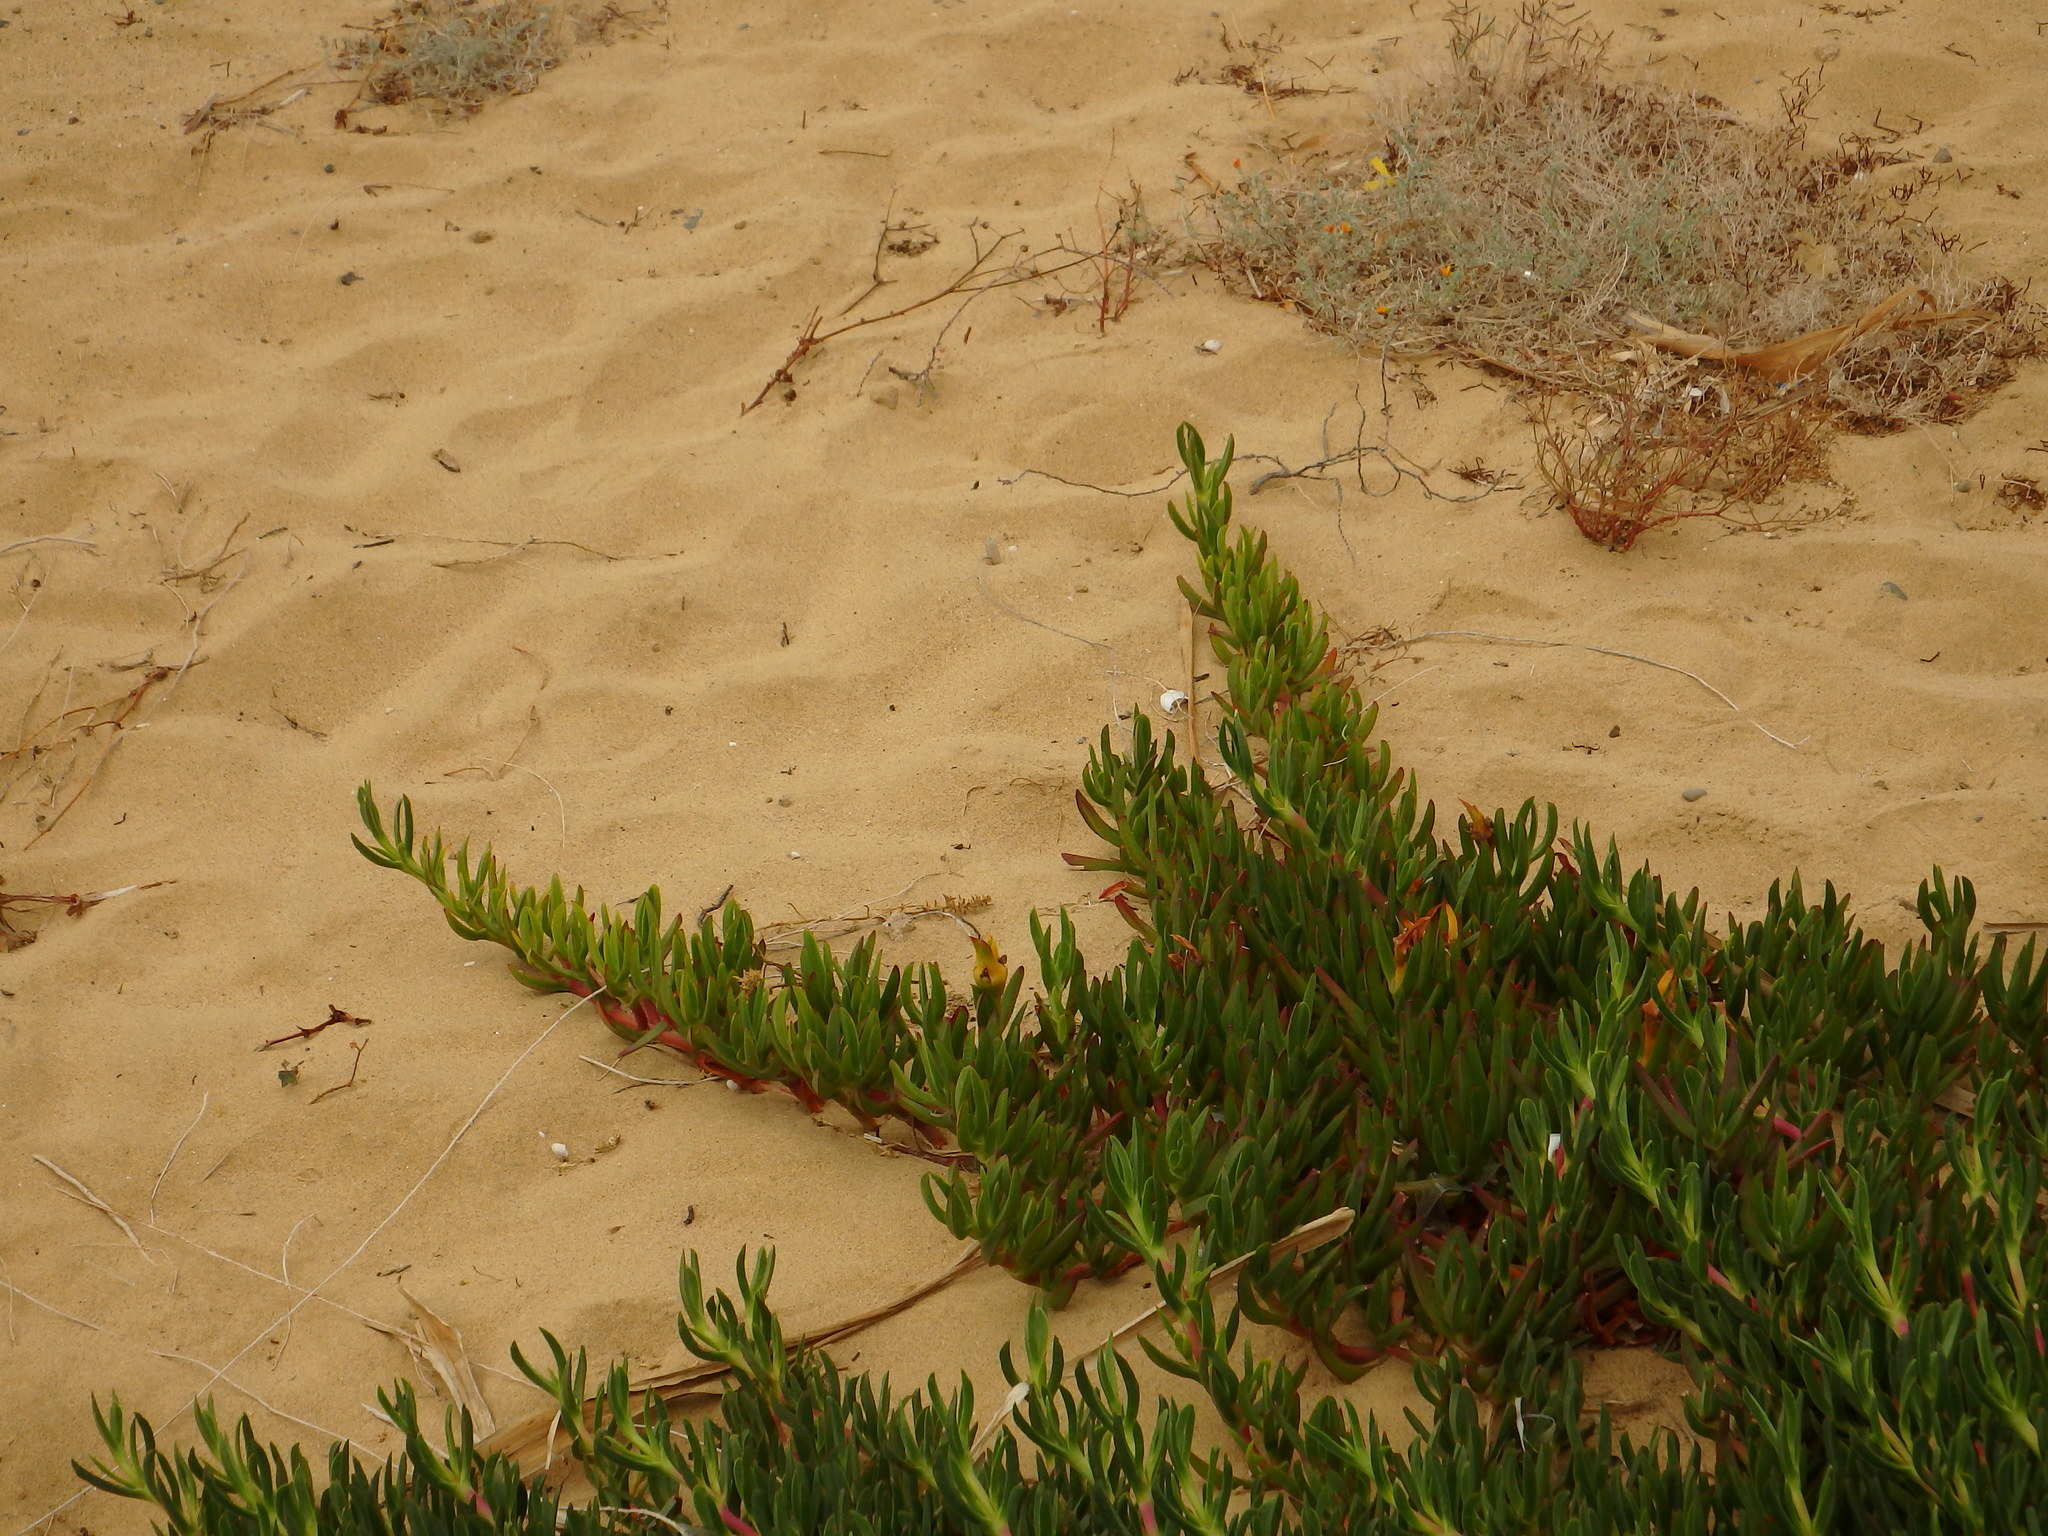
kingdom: Plantae
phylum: Tracheophyta
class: Magnoliopsida
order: Caryophyllales
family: Aizoaceae
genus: Carpobrotus
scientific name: Carpobrotus edulis
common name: Hottentot-fig
